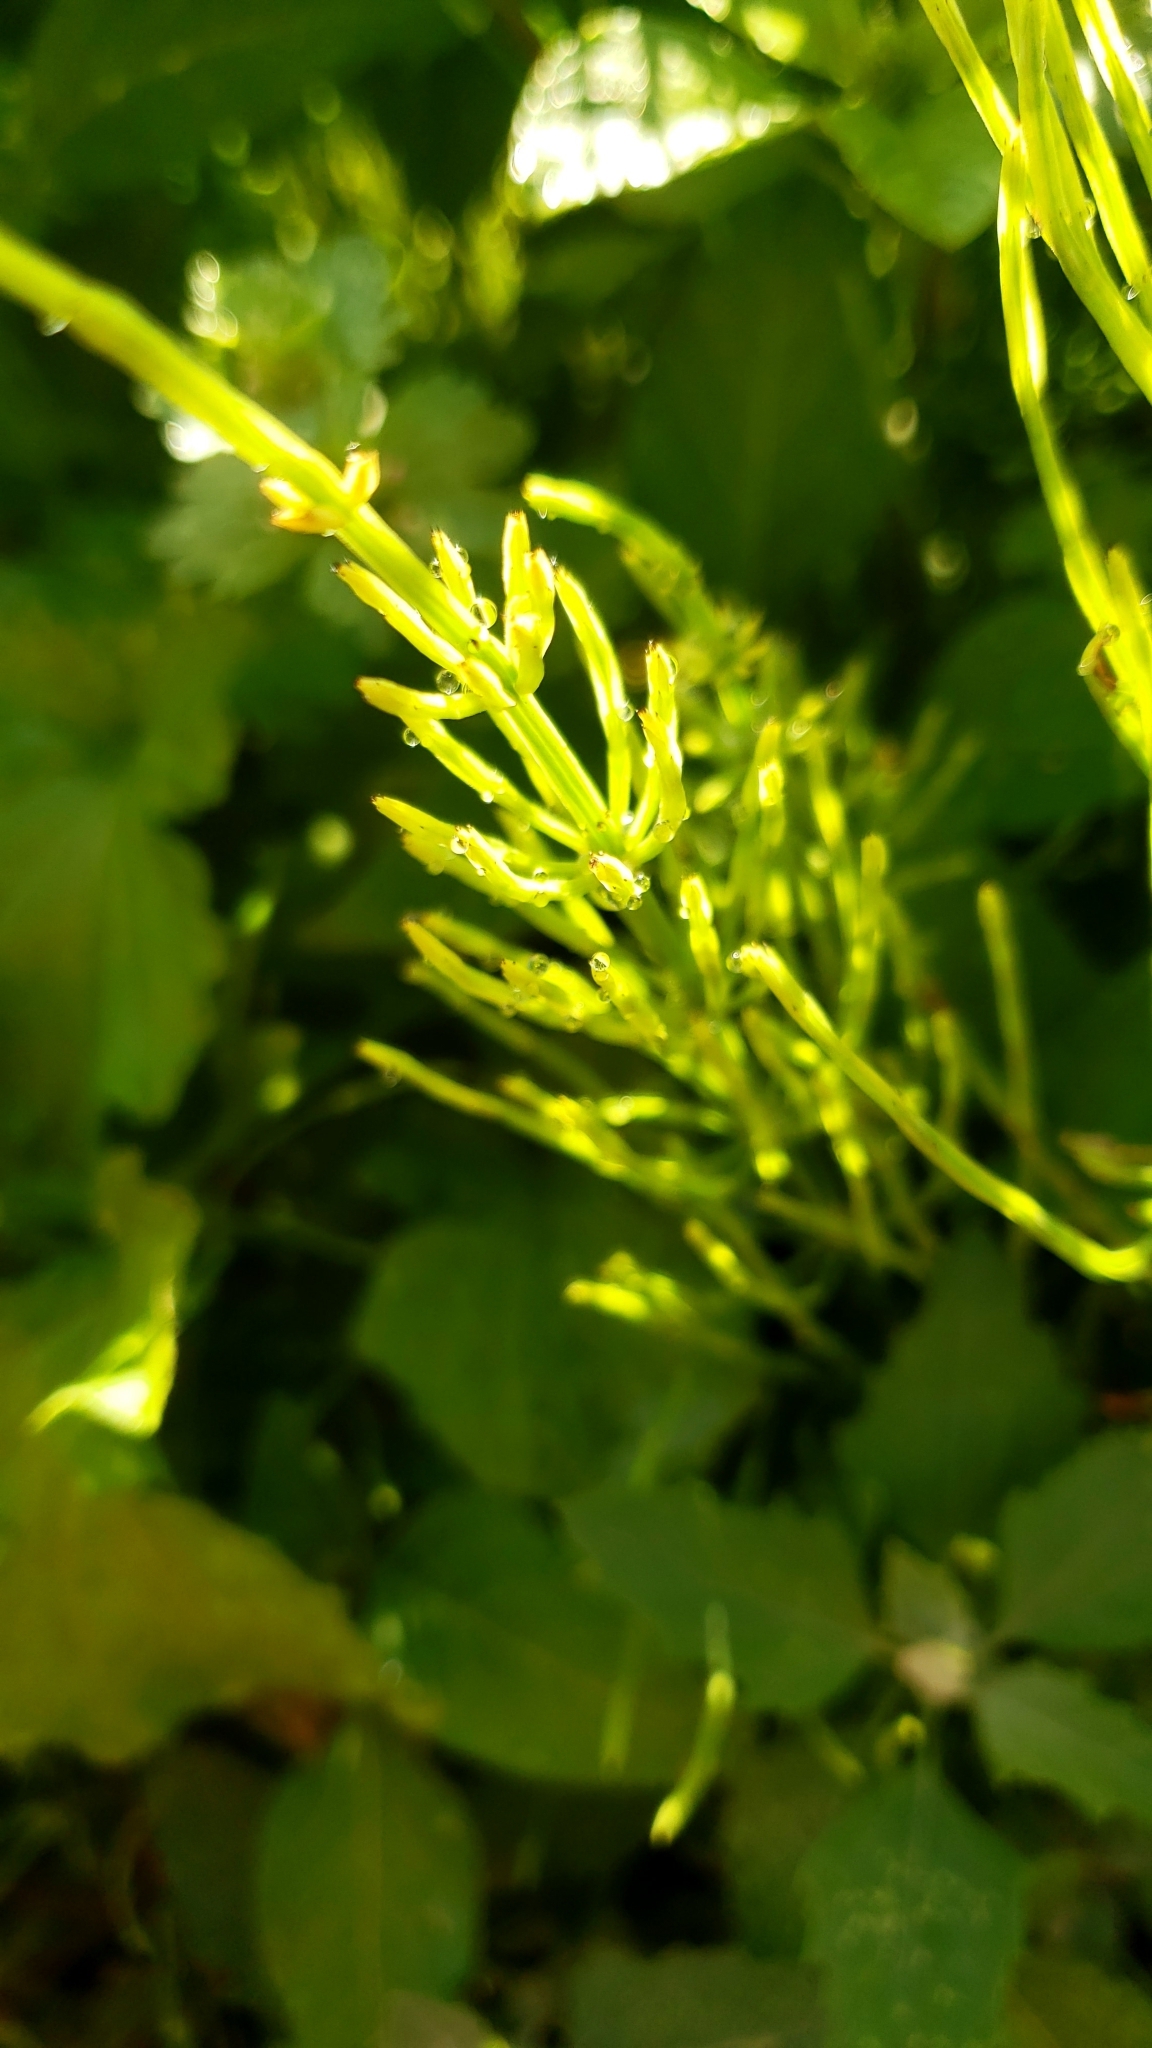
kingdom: Plantae
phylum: Tracheophyta
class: Polypodiopsida
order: Equisetales
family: Equisetaceae
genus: Equisetum
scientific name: Equisetum arvense
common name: Field horsetail
